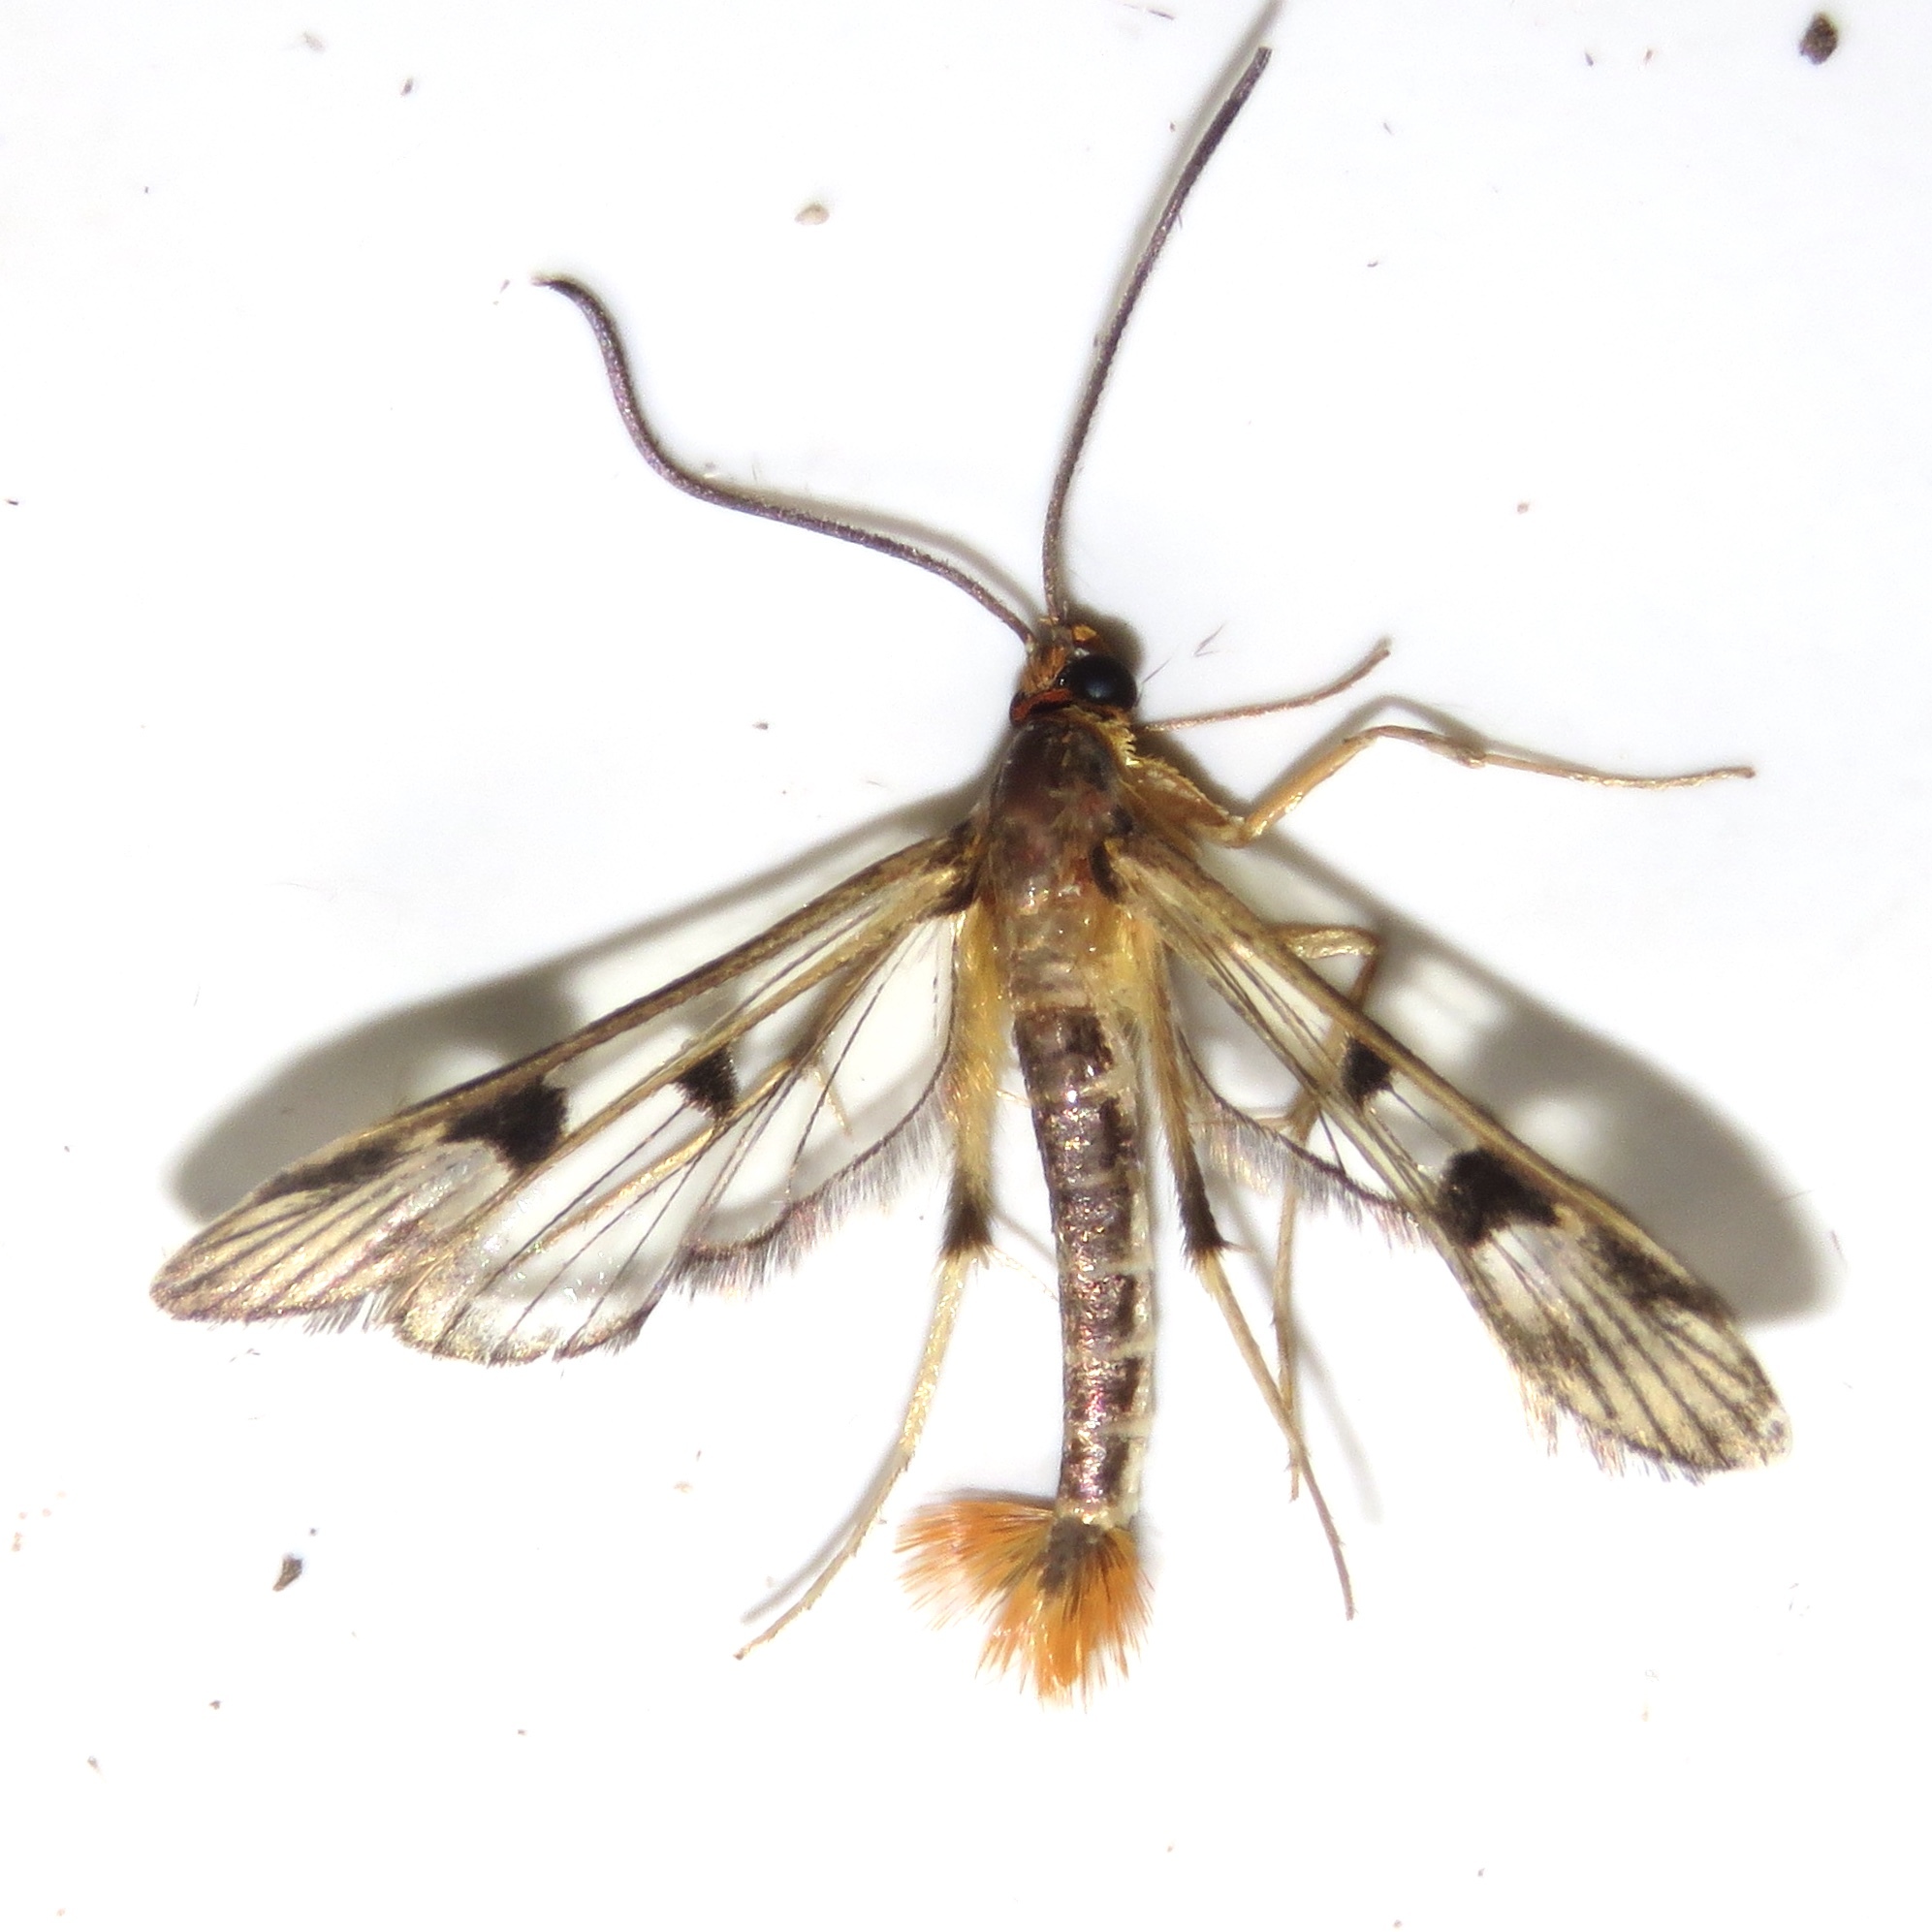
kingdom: Animalia
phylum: Arthropoda
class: Insecta
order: Lepidoptera
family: Sesiidae
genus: Synanthedon
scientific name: Synanthedon acerni
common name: Maple callus borer moth
